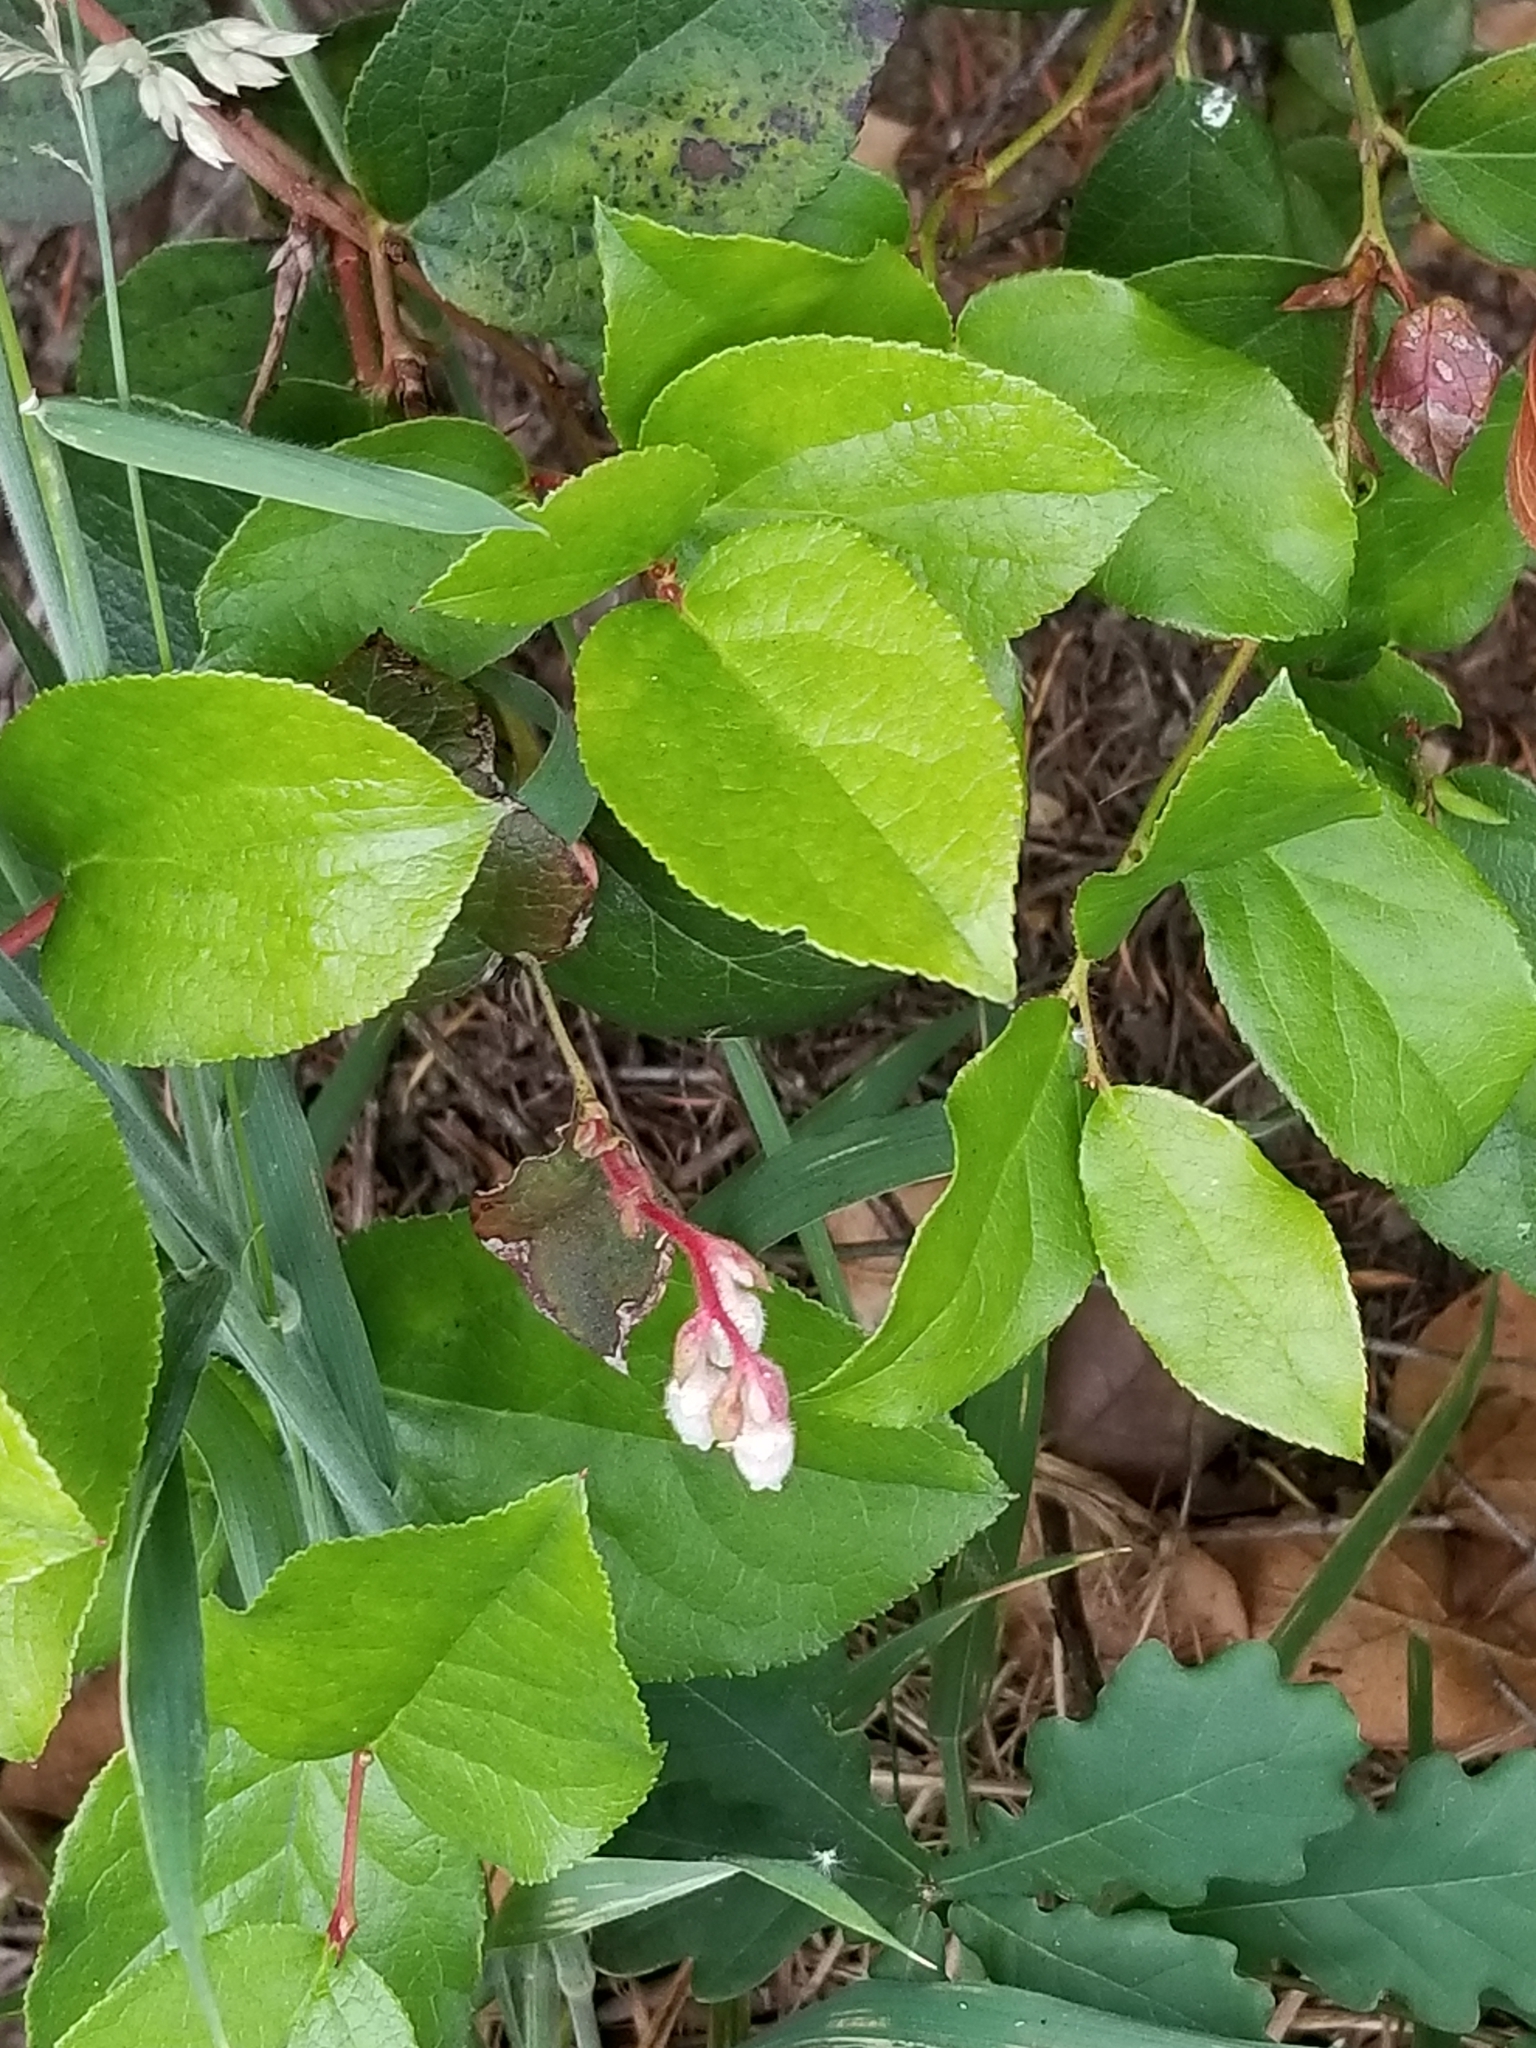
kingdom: Plantae
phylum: Tracheophyta
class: Magnoliopsida
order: Ericales
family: Ericaceae
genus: Gaultheria
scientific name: Gaultheria shallon
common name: Shallon
